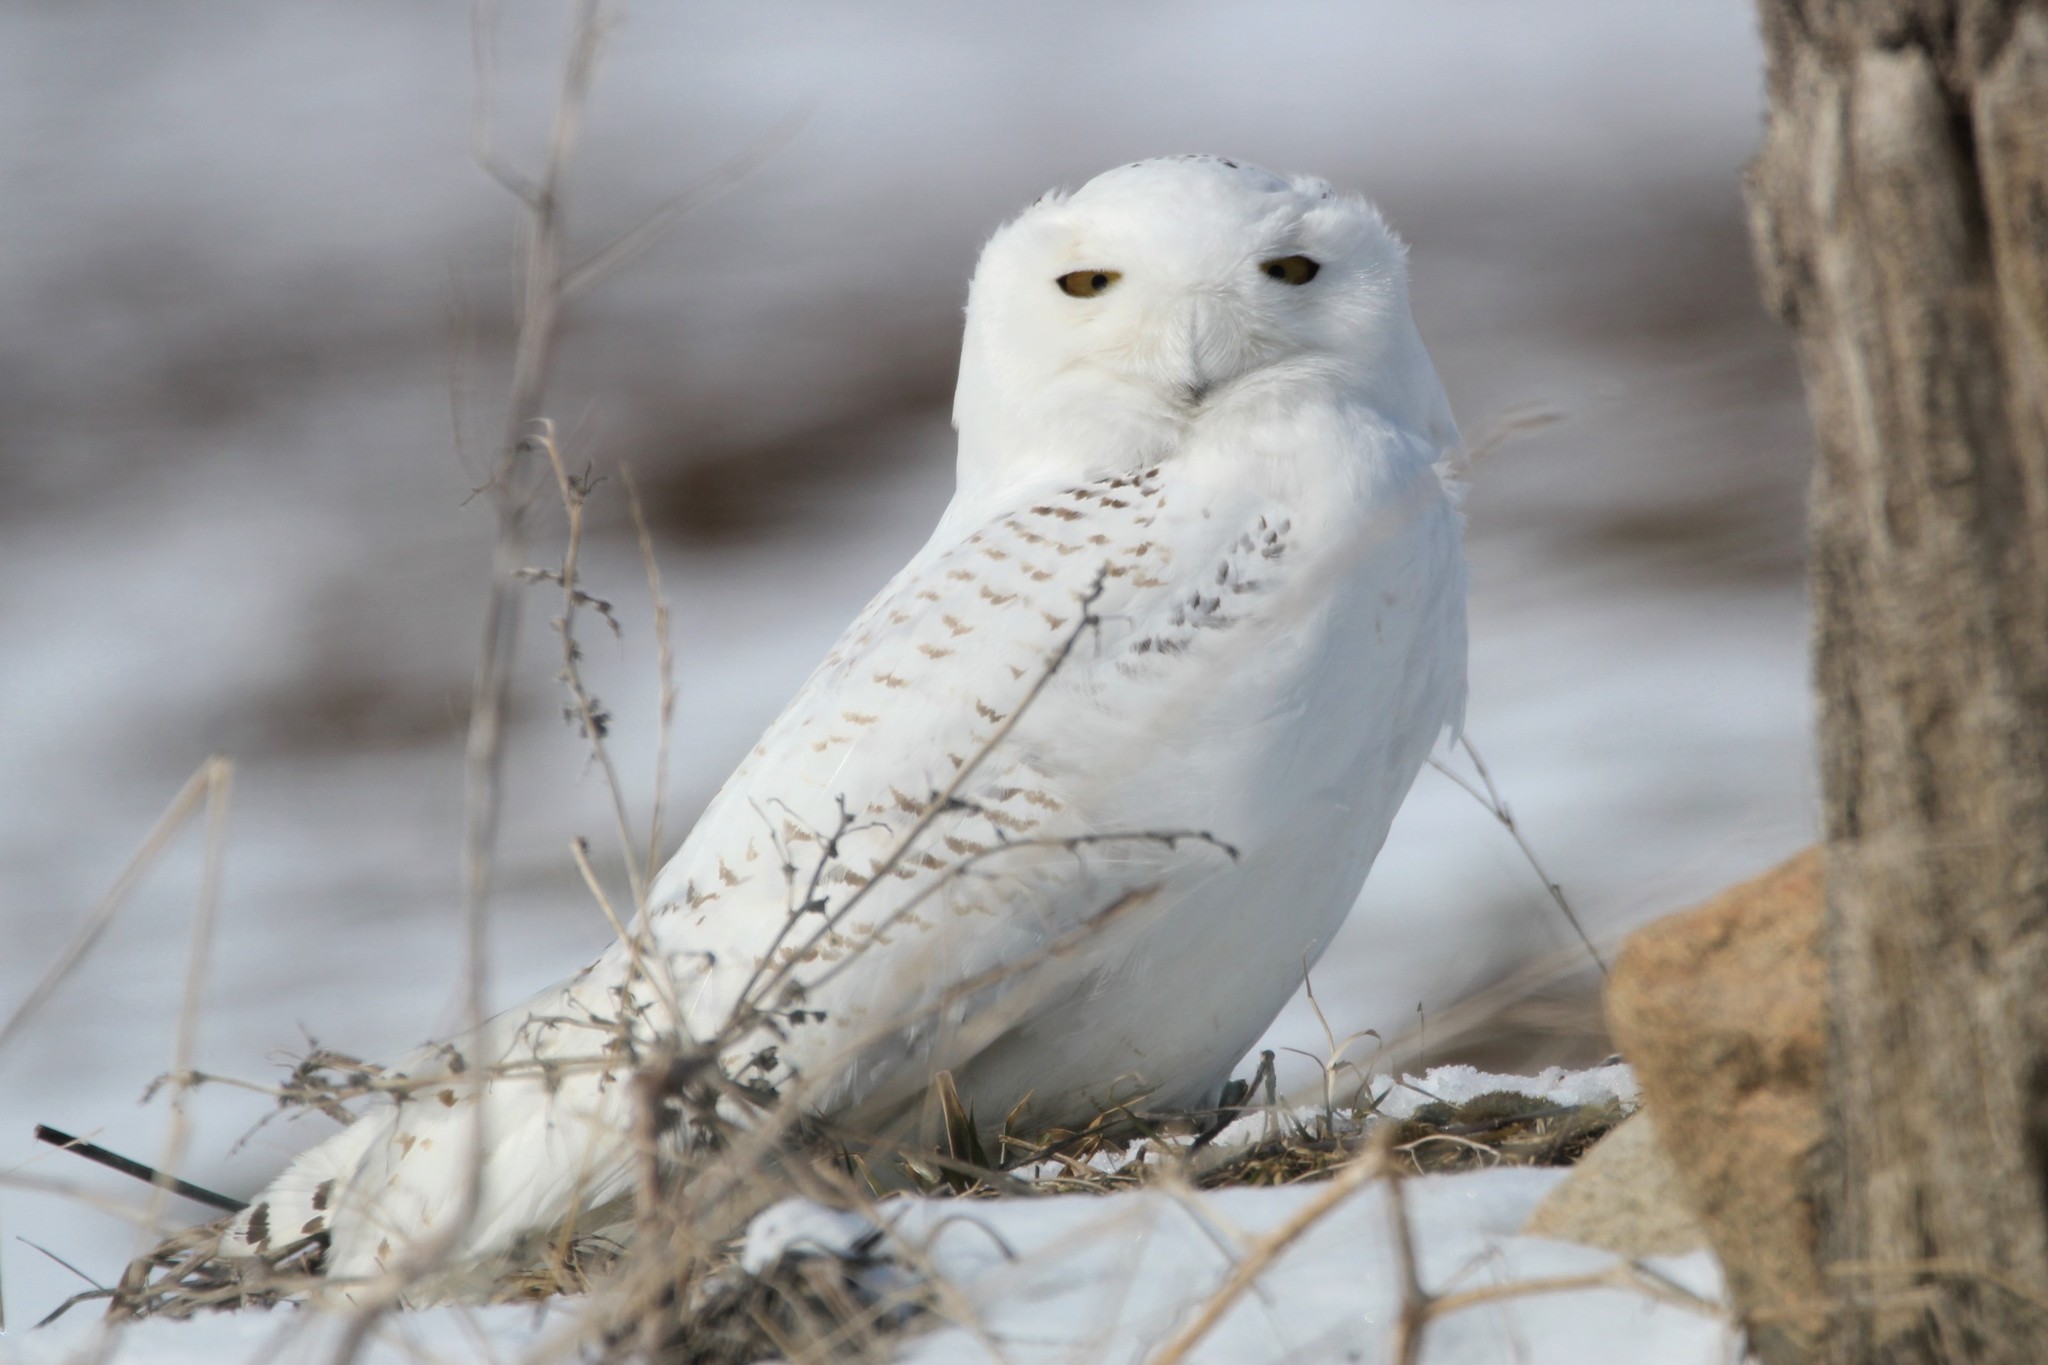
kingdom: Animalia
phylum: Chordata
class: Aves
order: Strigiformes
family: Strigidae
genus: Bubo
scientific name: Bubo scandiacus
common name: Snowy owl
